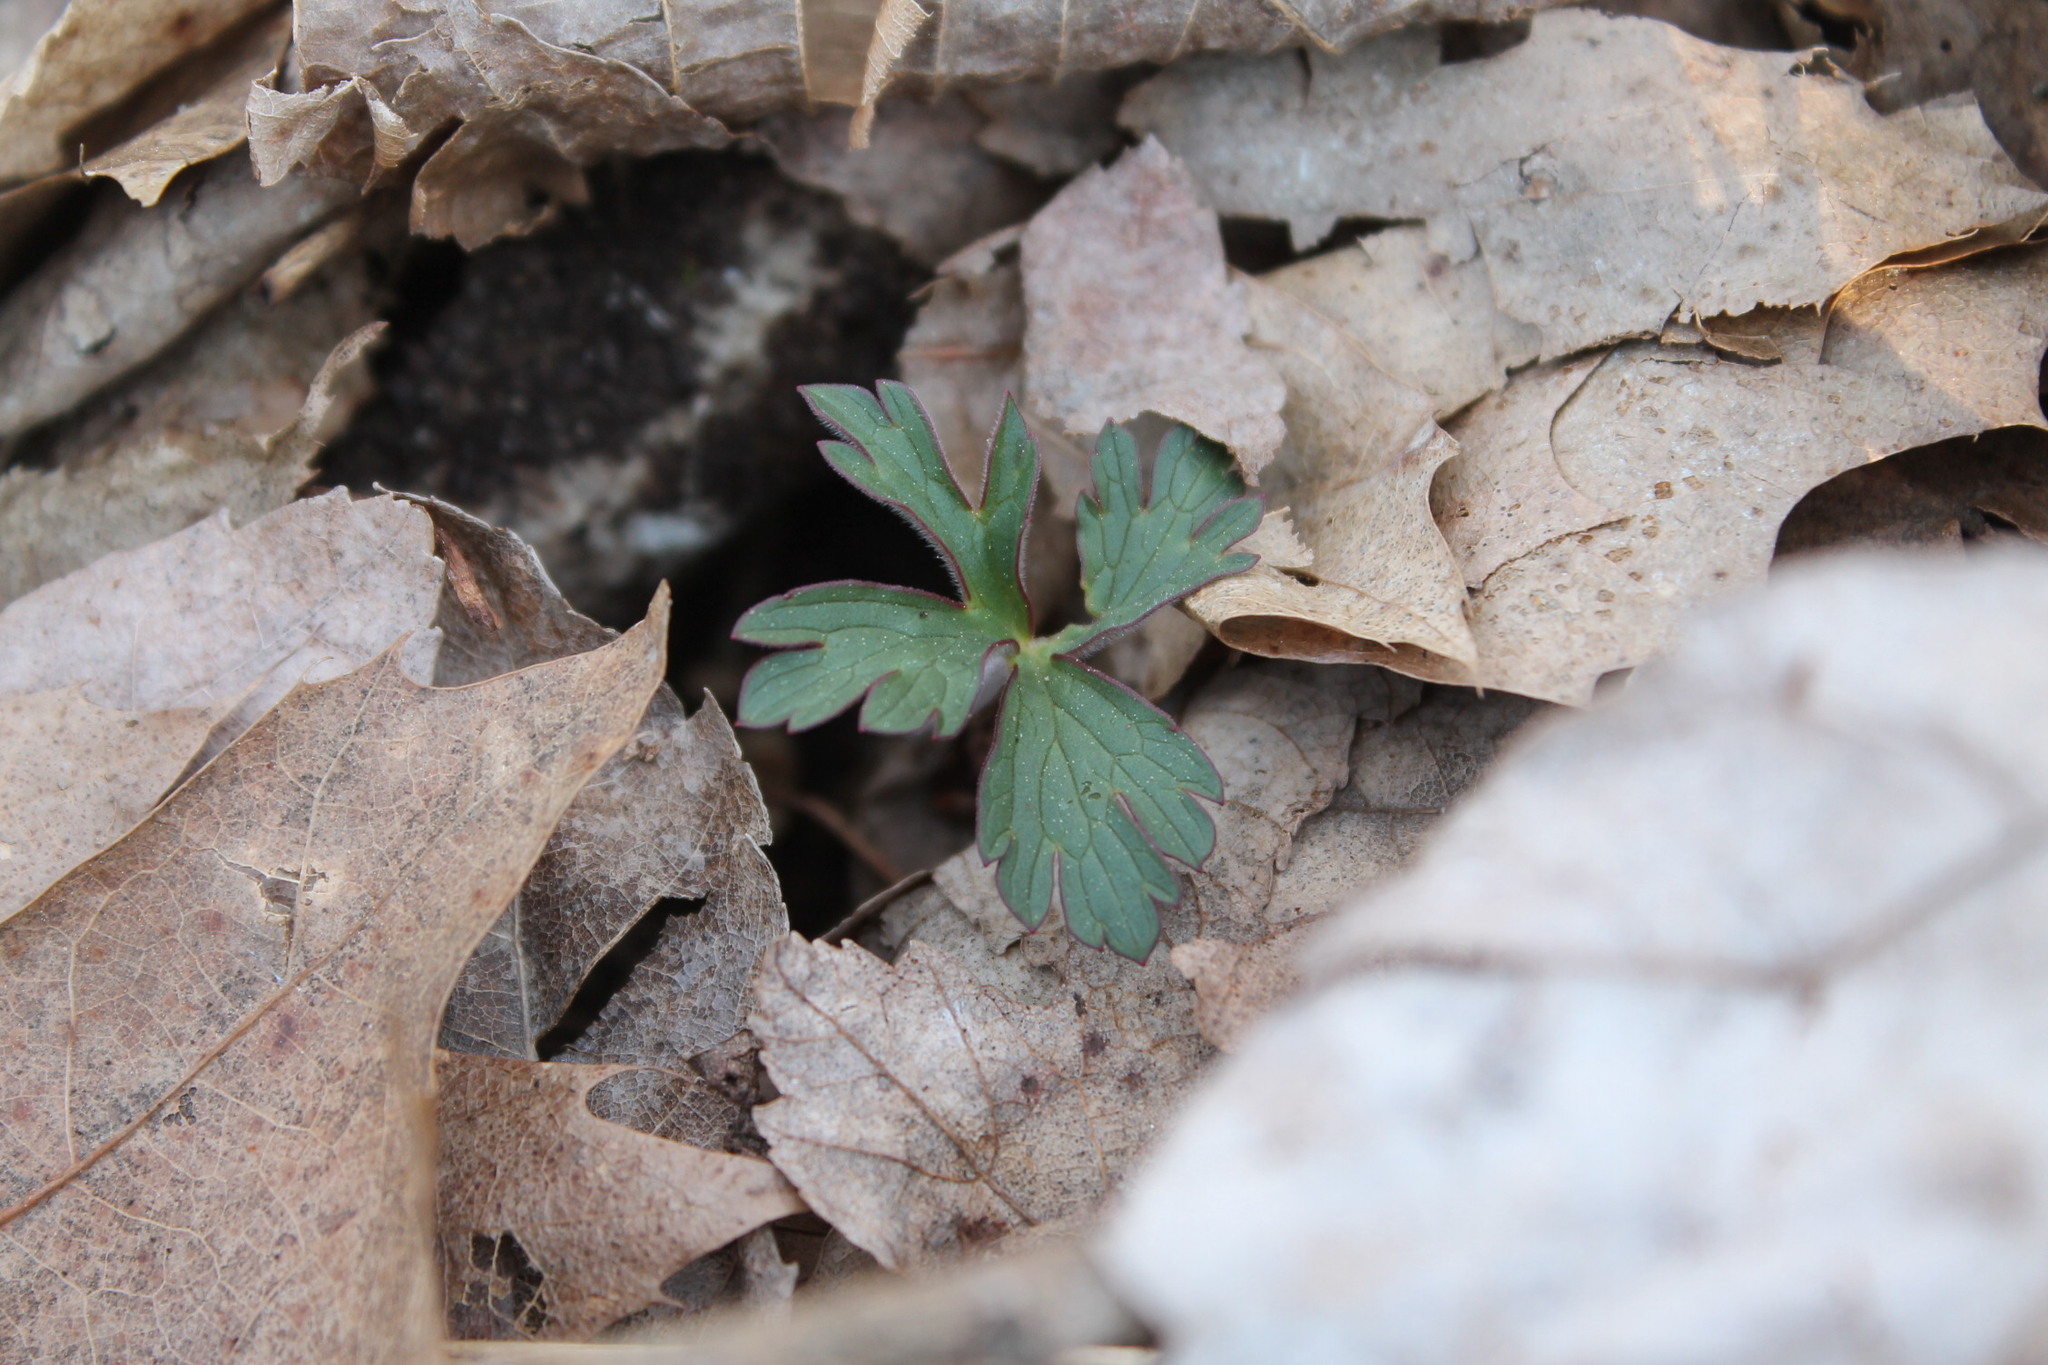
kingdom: Plantae
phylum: Tracheophyta
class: Magnoliopsida
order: Geraniales
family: Geraniaceae
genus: Geranium
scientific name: Geranium maculatum
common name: Spotted geranium
